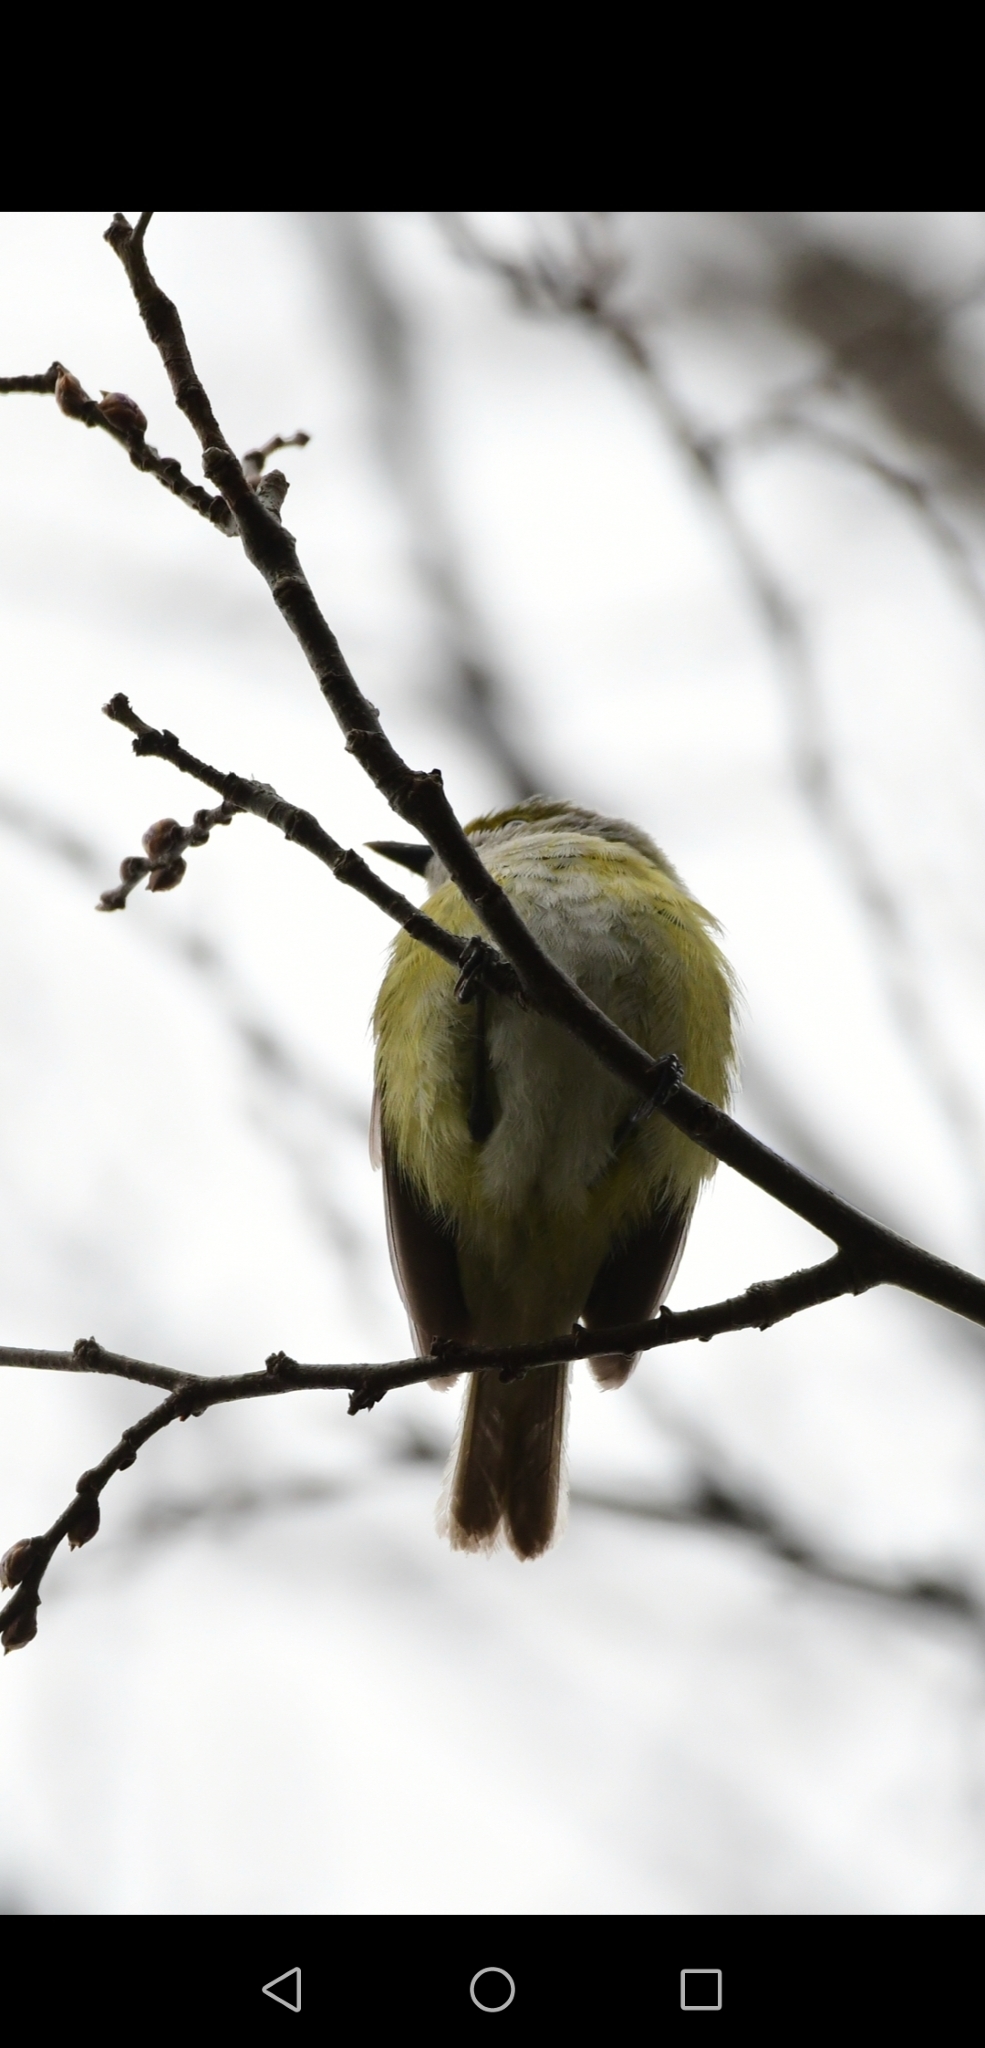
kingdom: Animalia
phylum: Chordata
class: Aves
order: Passeriformes
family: Parulidae
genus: Icteria
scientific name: Icteria virens
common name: Yellow-breasted chat
